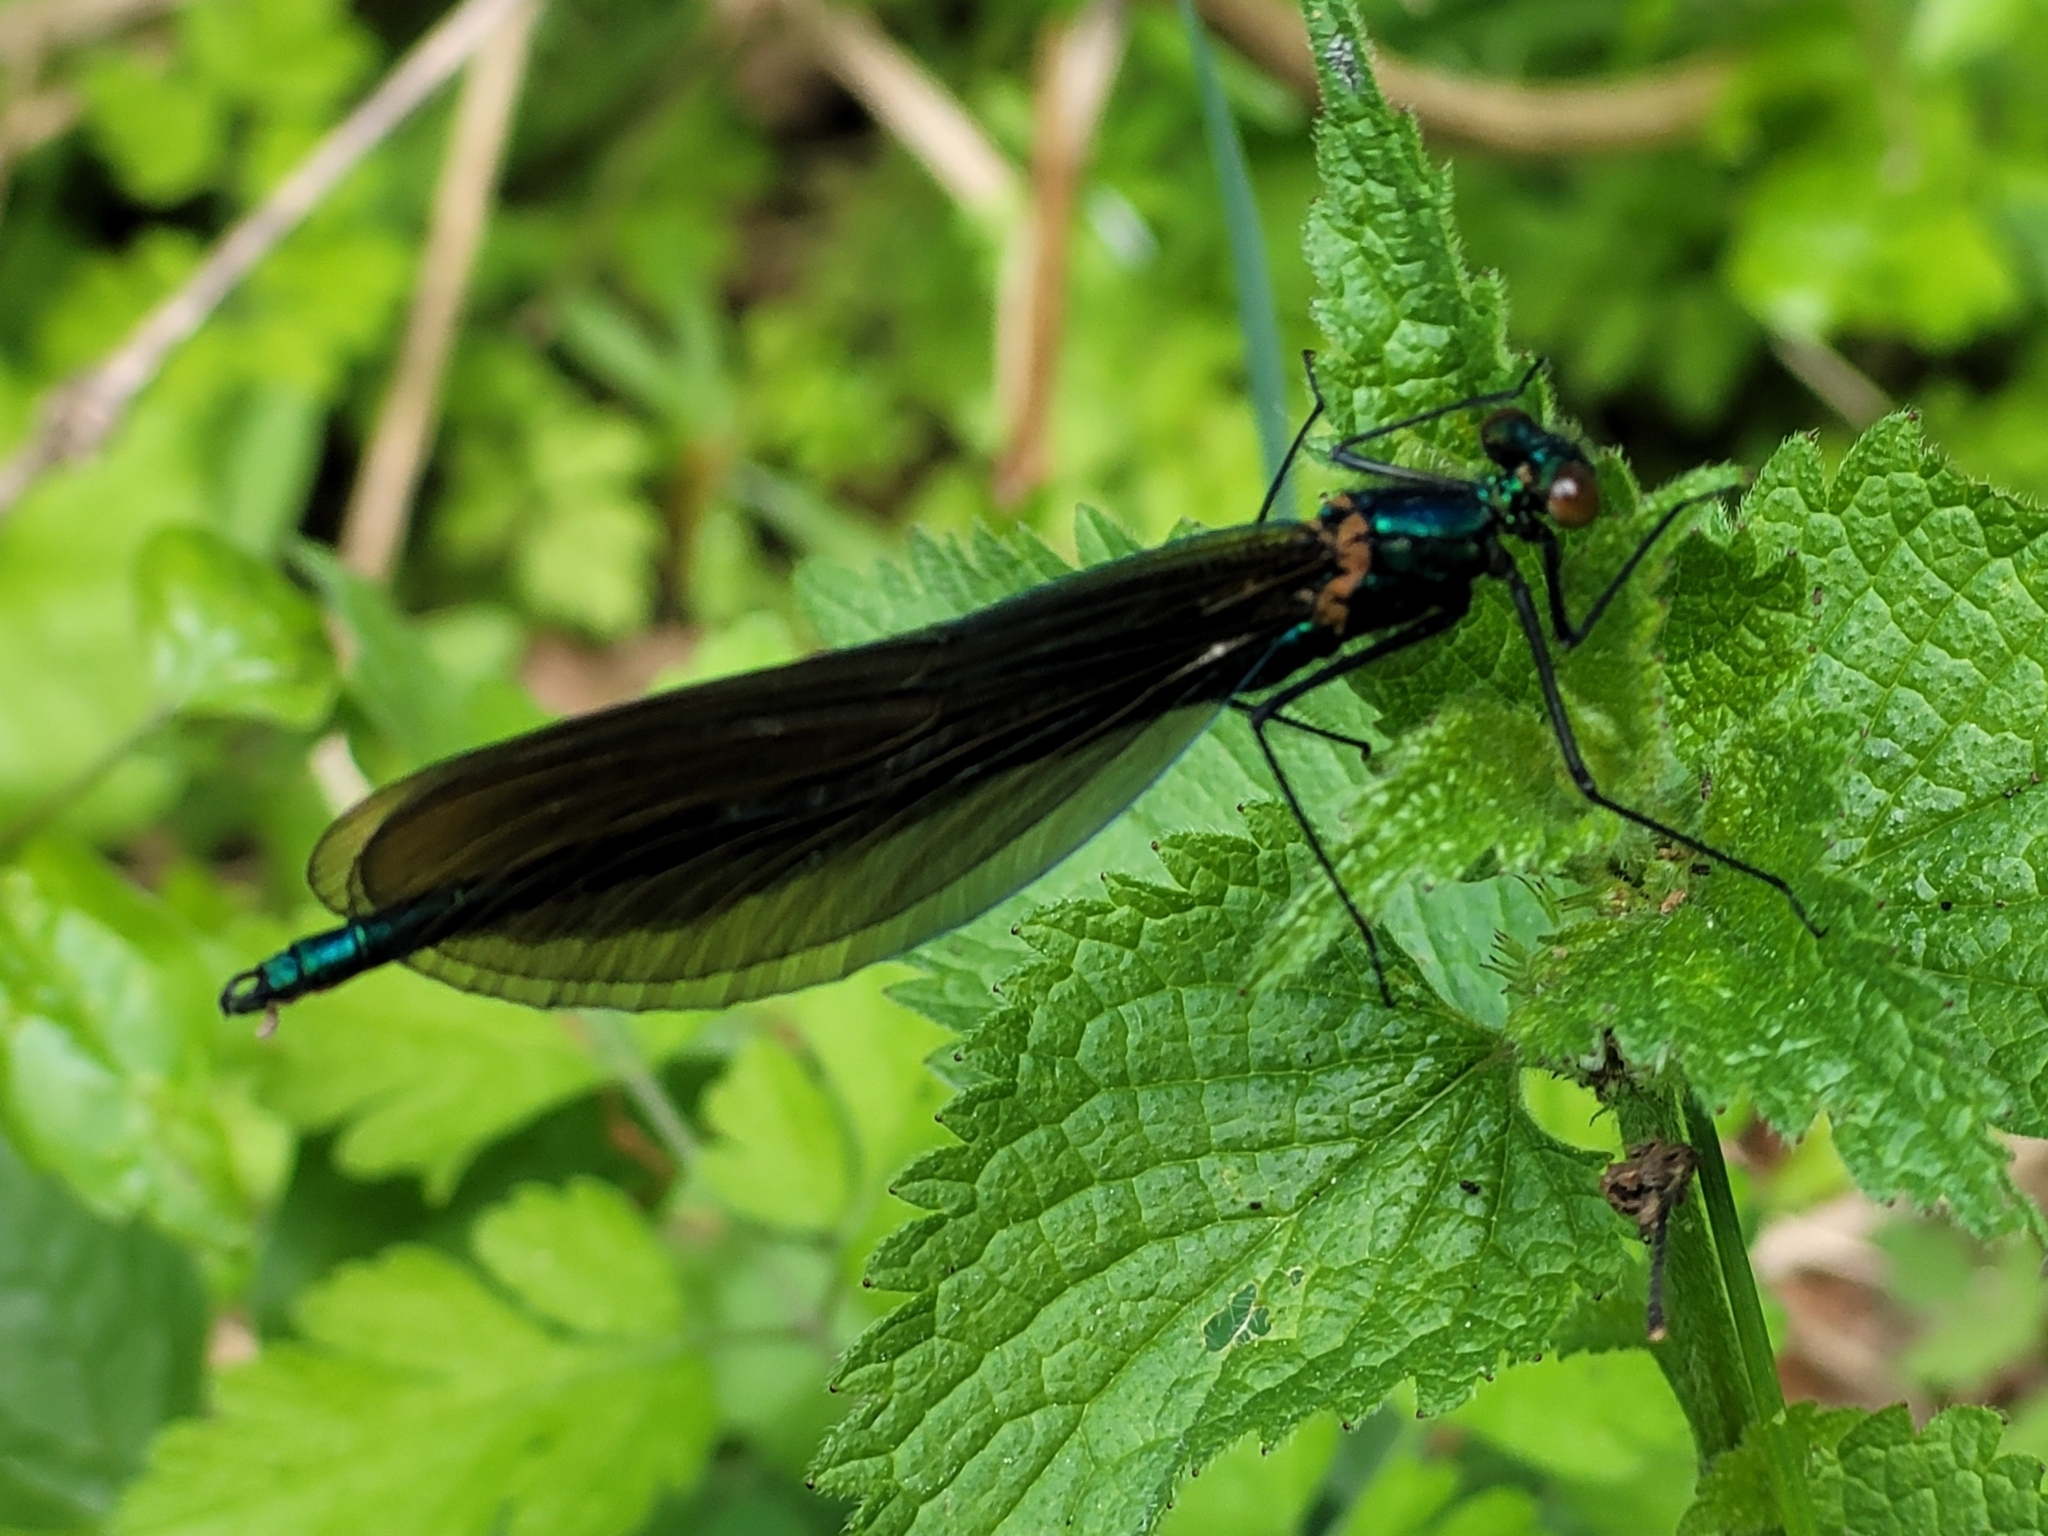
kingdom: Animalia
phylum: Arthropoda
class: Insecta
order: Odonata
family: Calopterygidae
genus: Calopteryx
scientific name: Calopteryx virgo
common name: Beautiful demoiselle
